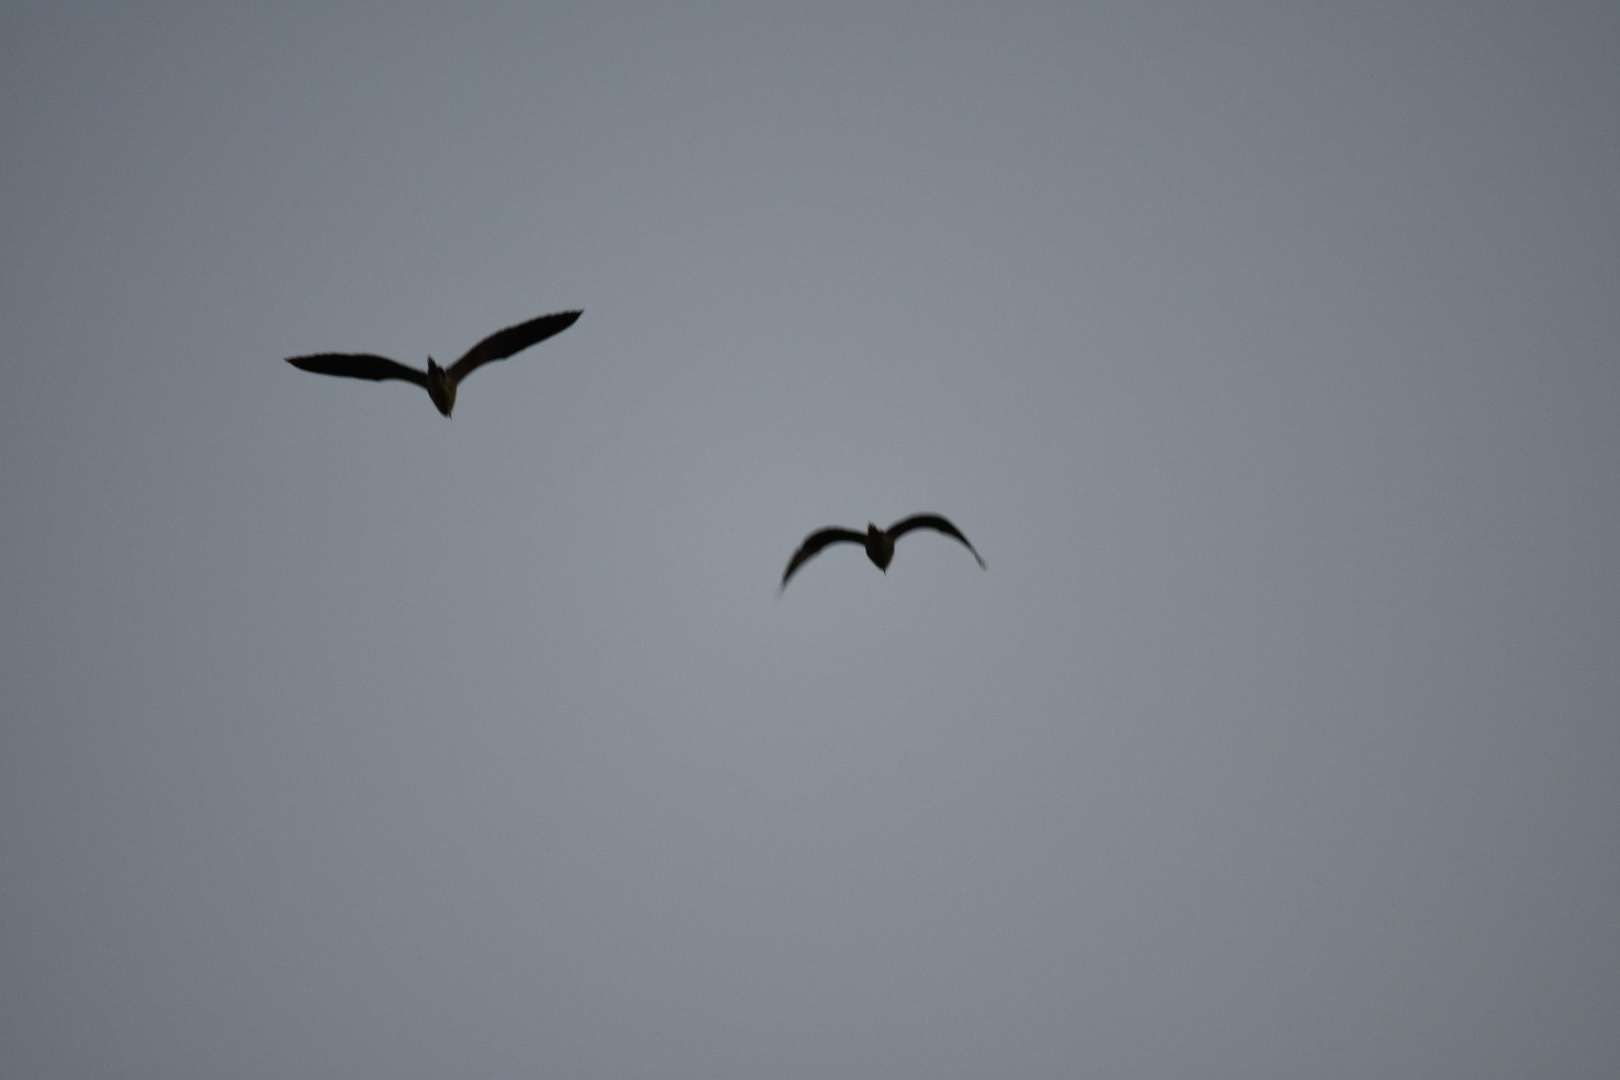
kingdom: Animalia
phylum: Chordata
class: Aves
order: Pelecaniformes
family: Ardeidae
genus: Nycticorax
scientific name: Nycticorax nycticorax
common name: Black-crowned night heron
